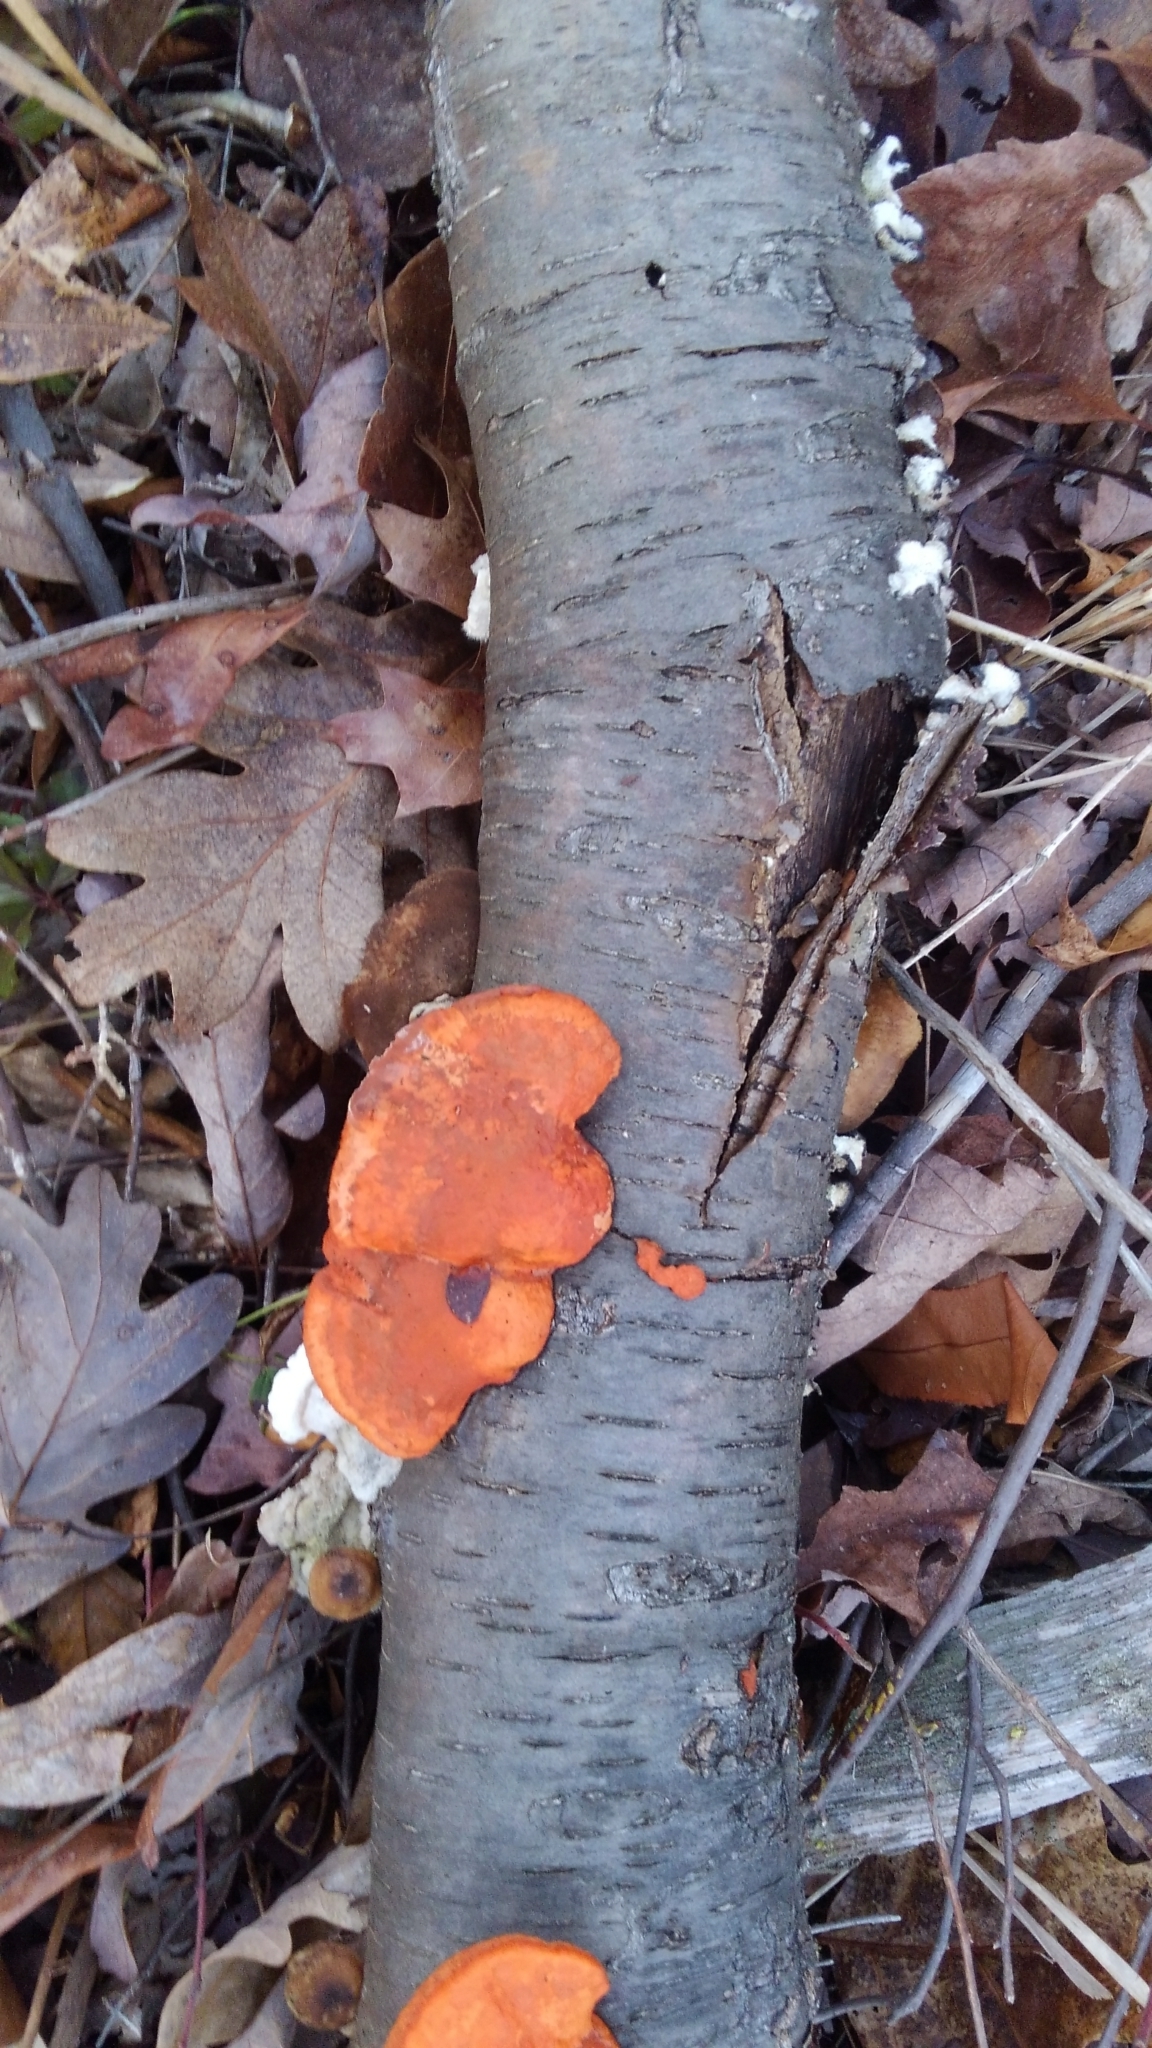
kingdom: Fungi
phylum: Basidiomycota
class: Agaricomycetes
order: Polyporales
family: Polyporaceae
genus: Trametes
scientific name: Trametes cinnabarina
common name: Northern cinnabar polypore
